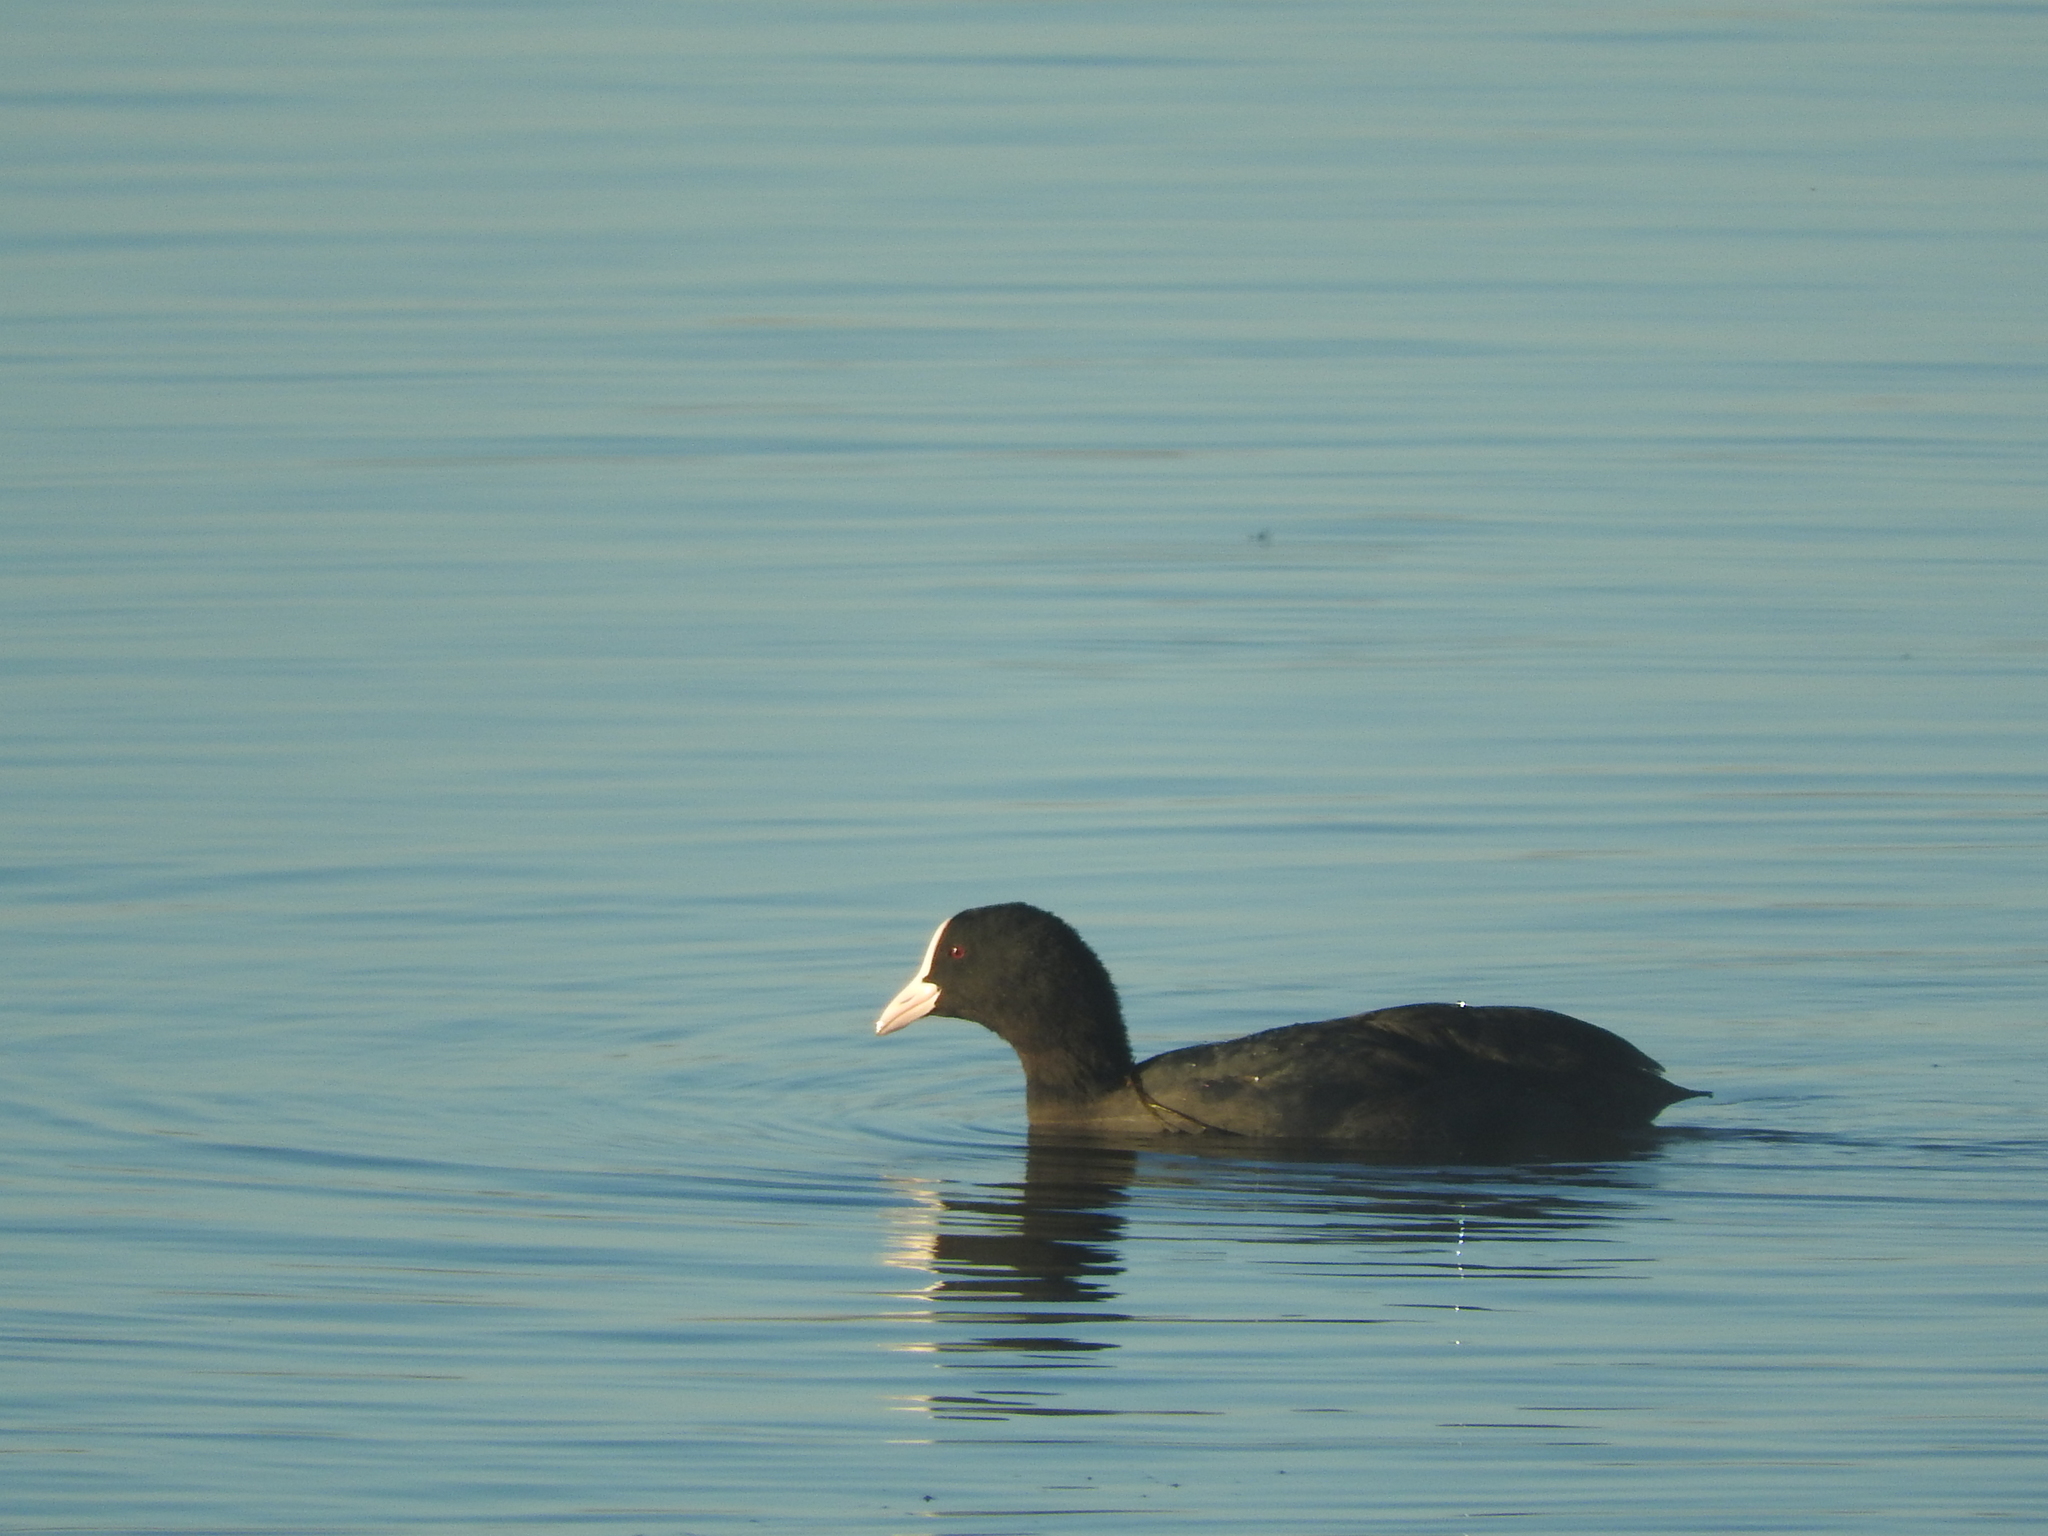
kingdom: Animalia
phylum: Chordata
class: Aves
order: Gruiformes
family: Rallidae
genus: Fulica
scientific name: Fulica atra
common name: Eurasian coot
